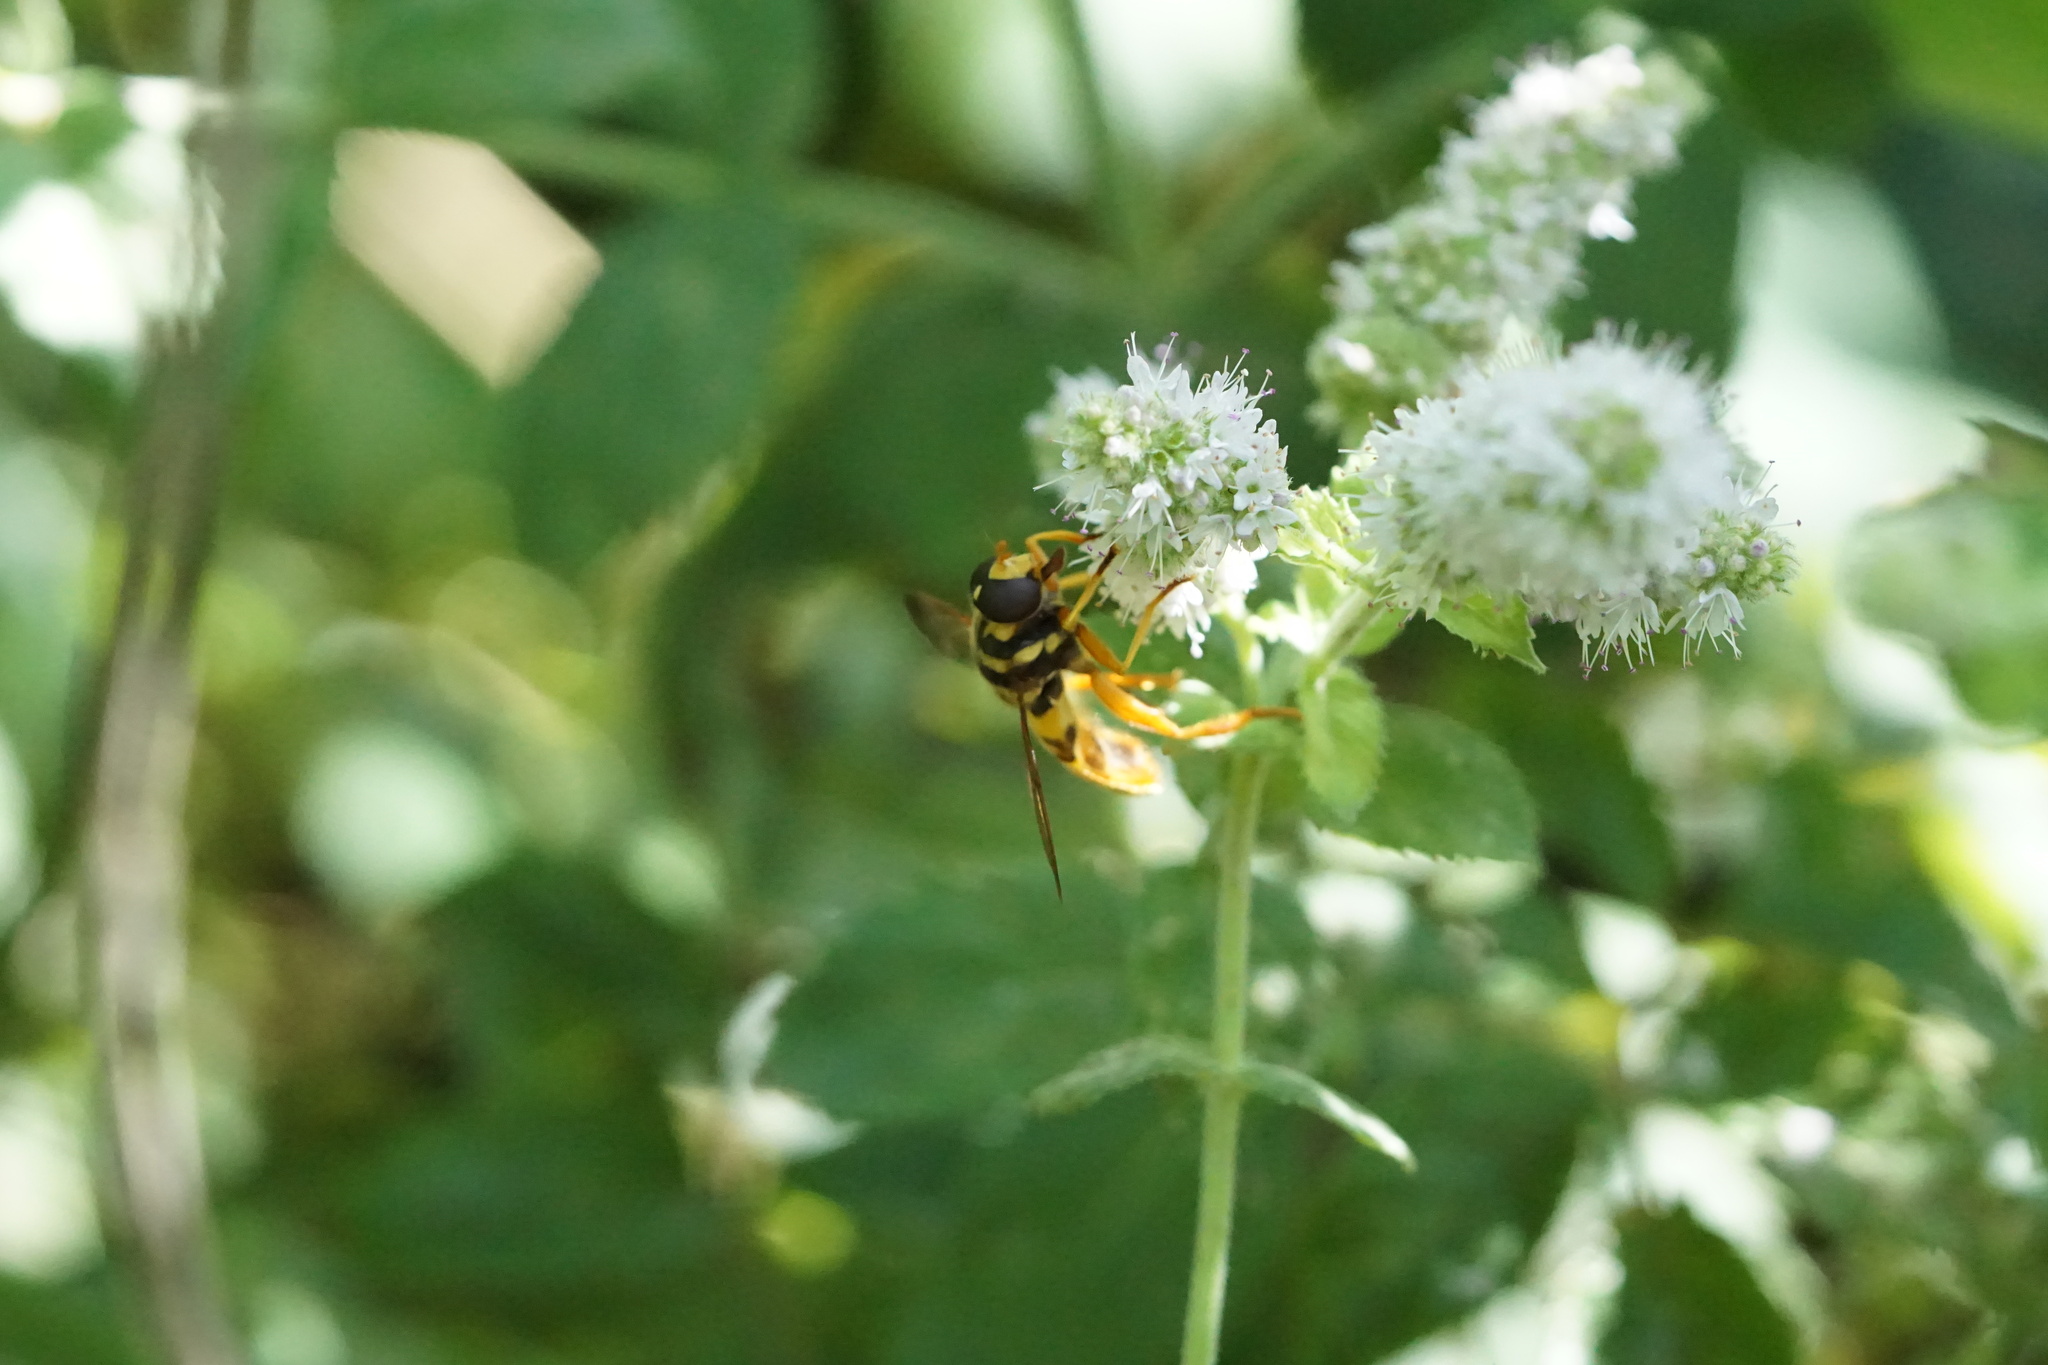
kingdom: Animalia
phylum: Arthropoda
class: Insecta
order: Diptera
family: Syrphidae
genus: Milesia
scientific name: Milesia virginiensis
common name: Virginia giant
